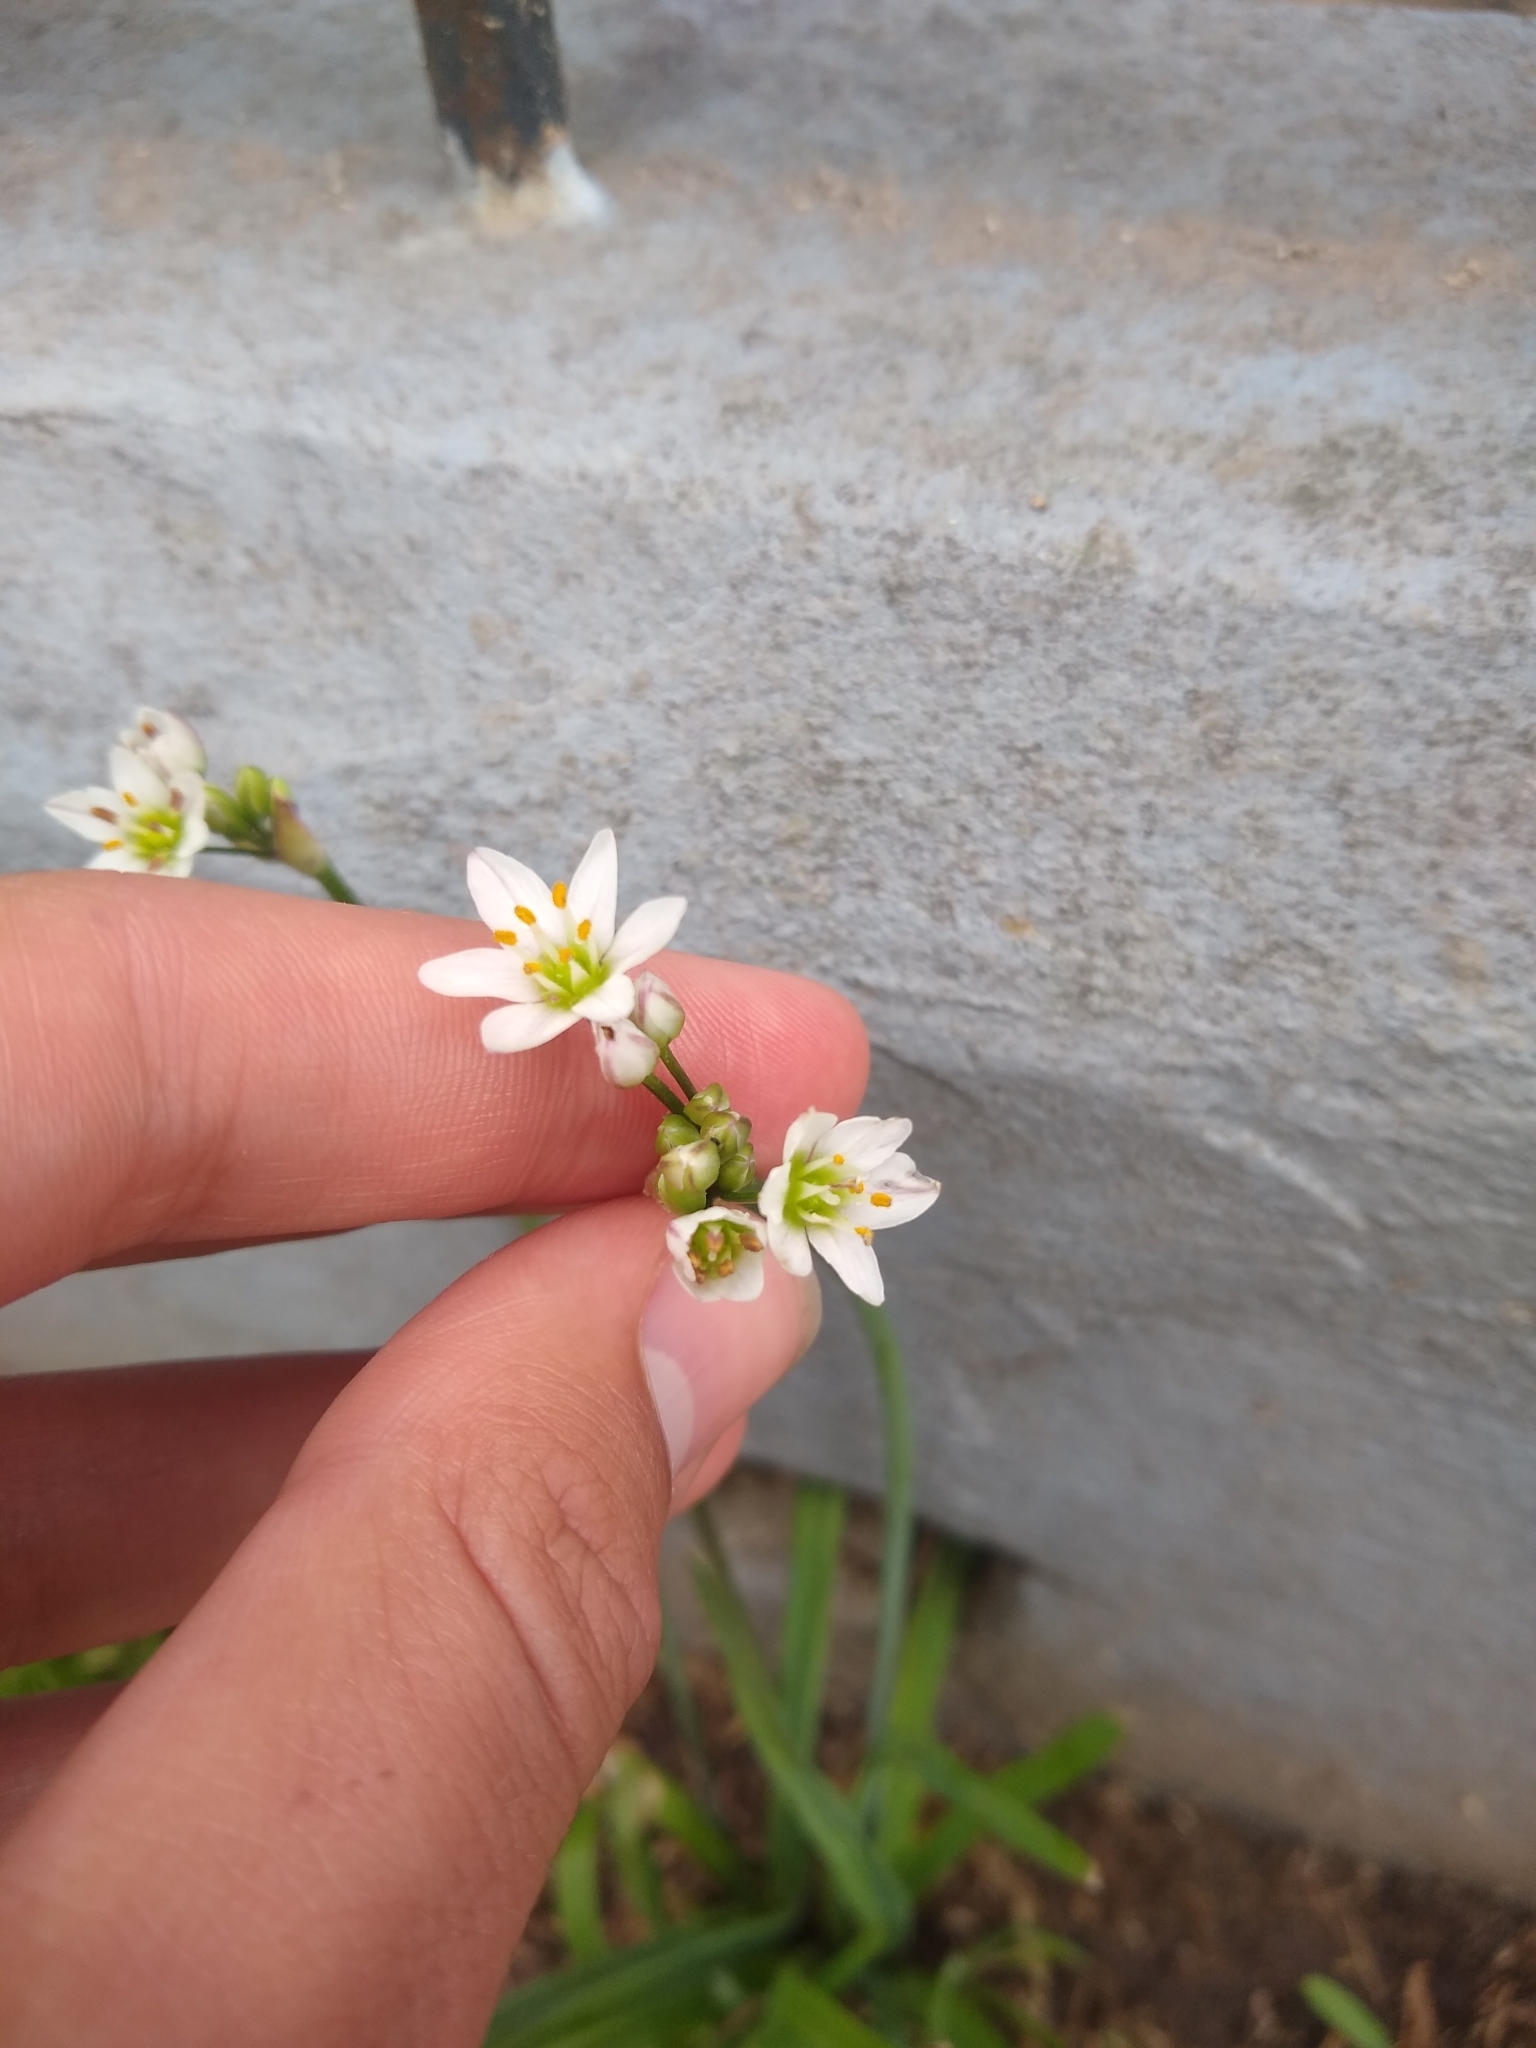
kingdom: Plantae
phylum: Tracheophyta
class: Liliopsida
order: Asparagales
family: Amaryllidaceae
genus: Nothoscordum
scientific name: Nothoscordum gracile
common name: Slender false garlic
